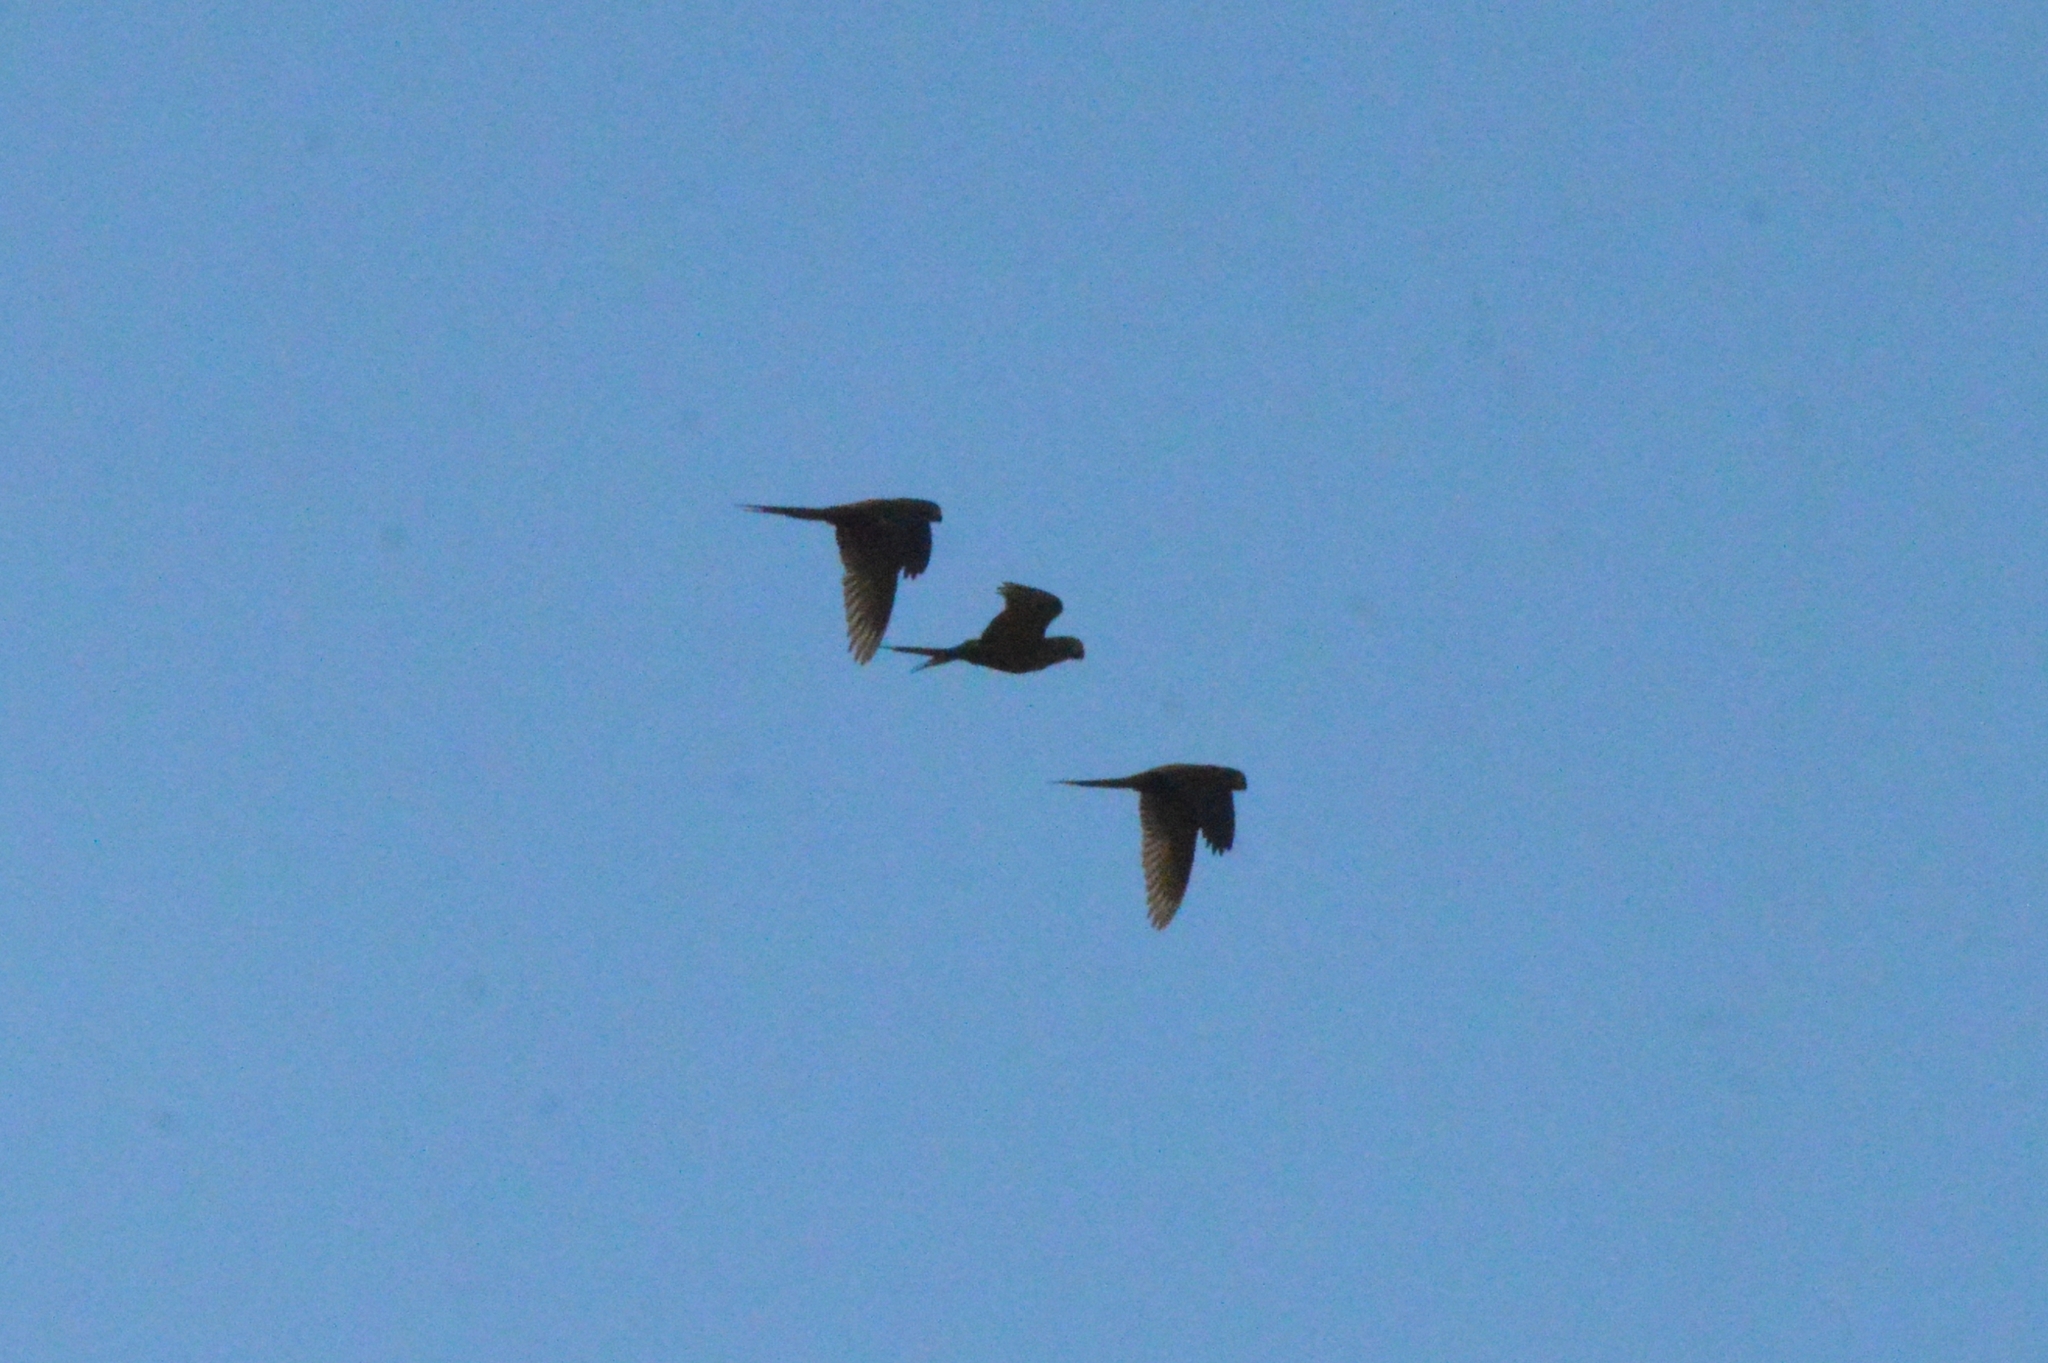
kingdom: Animalia
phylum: Chordata
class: Aves
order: Psittaciformes
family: Psittacidae
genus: Orthopsittaca
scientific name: Orthopsittaca manilata
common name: Red-bellied macaw
